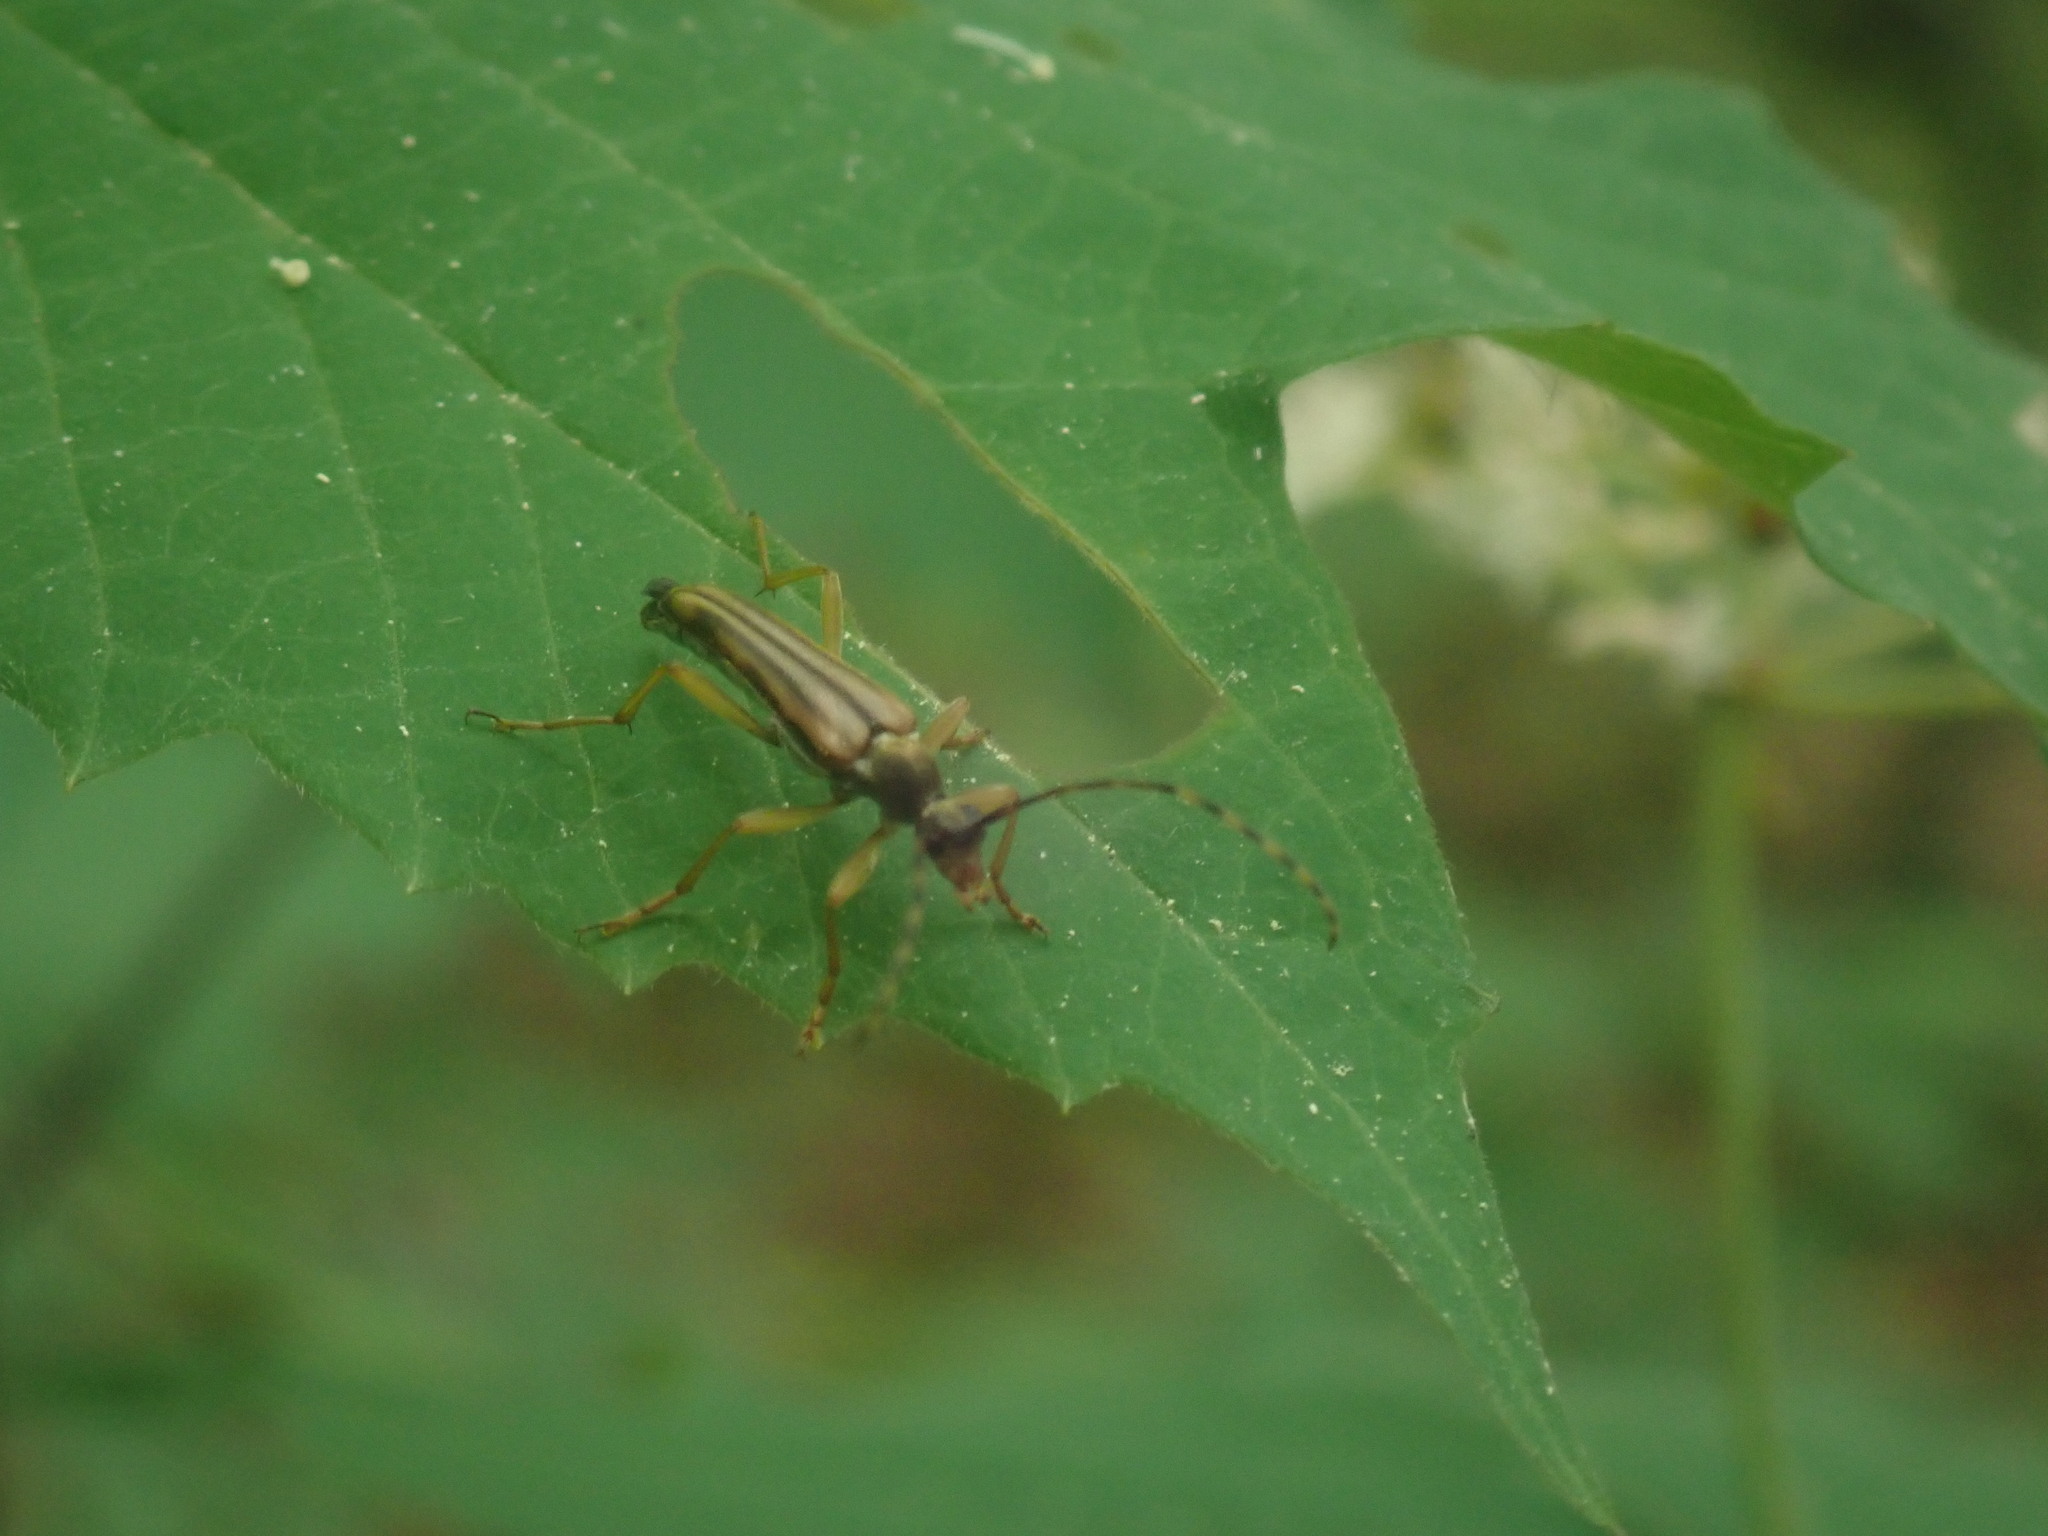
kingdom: Animalia
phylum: Arthropoda
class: Insecta
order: Coleoptera
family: Cerambycidae
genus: Analeptura
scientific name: Analeptura lineola
